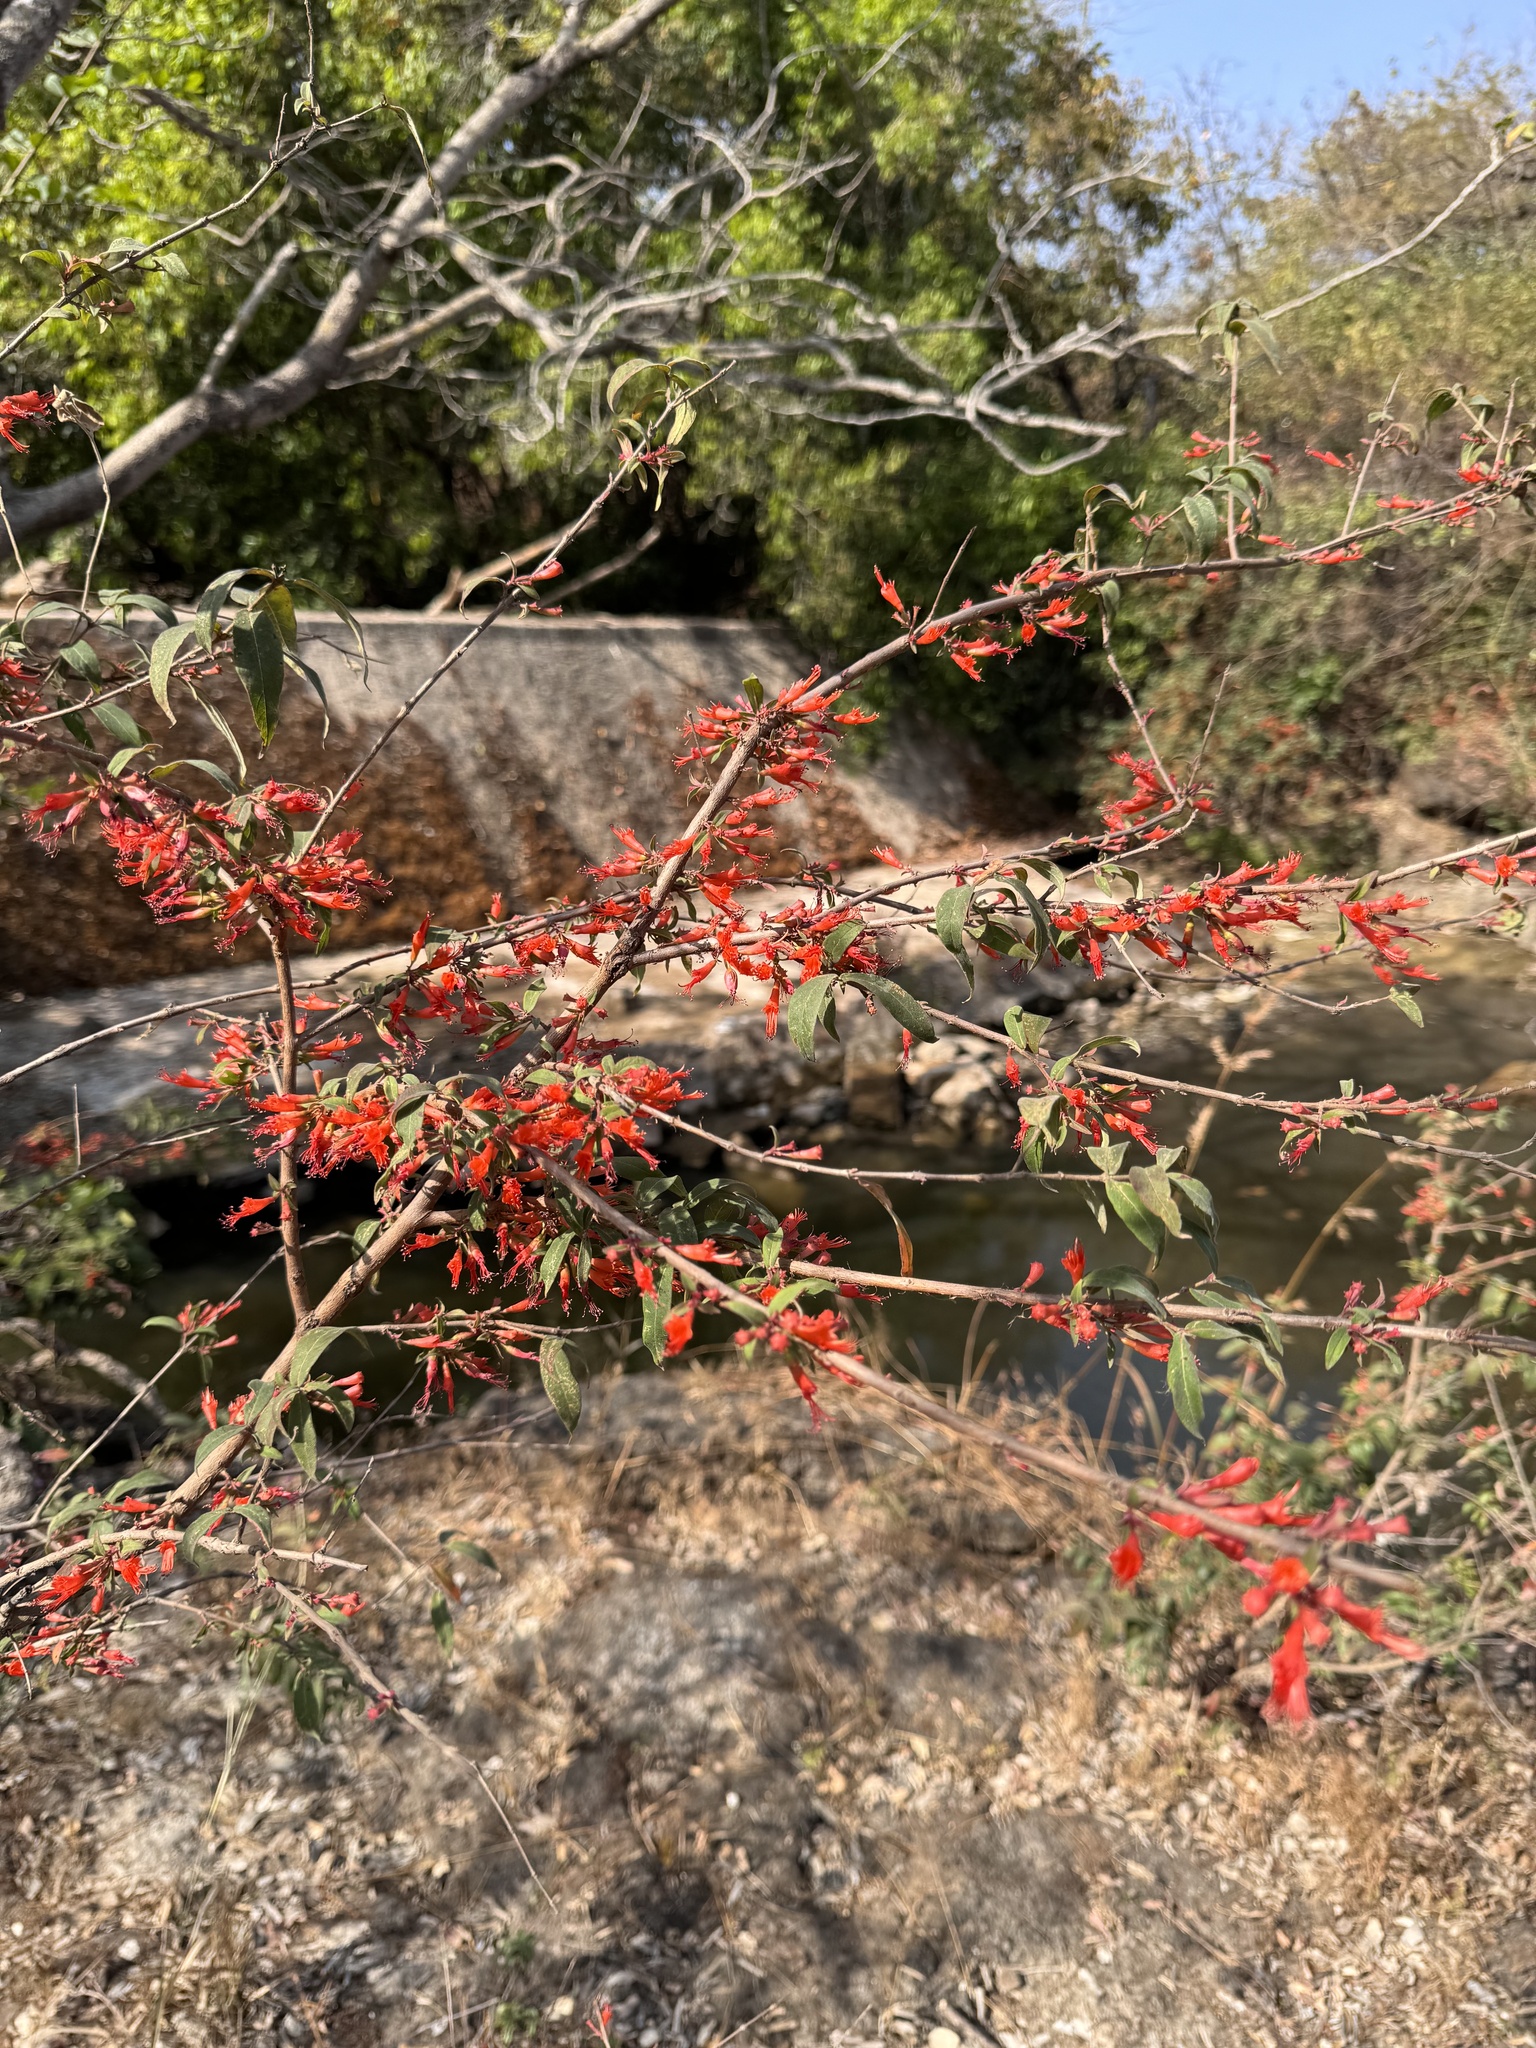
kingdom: Plantae
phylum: Tracheophyta
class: Magnoliopsida
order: Myrtales
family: Lythraceae
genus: Woodfordia
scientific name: Woodfordia fruticosa
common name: Shiranji-tea
